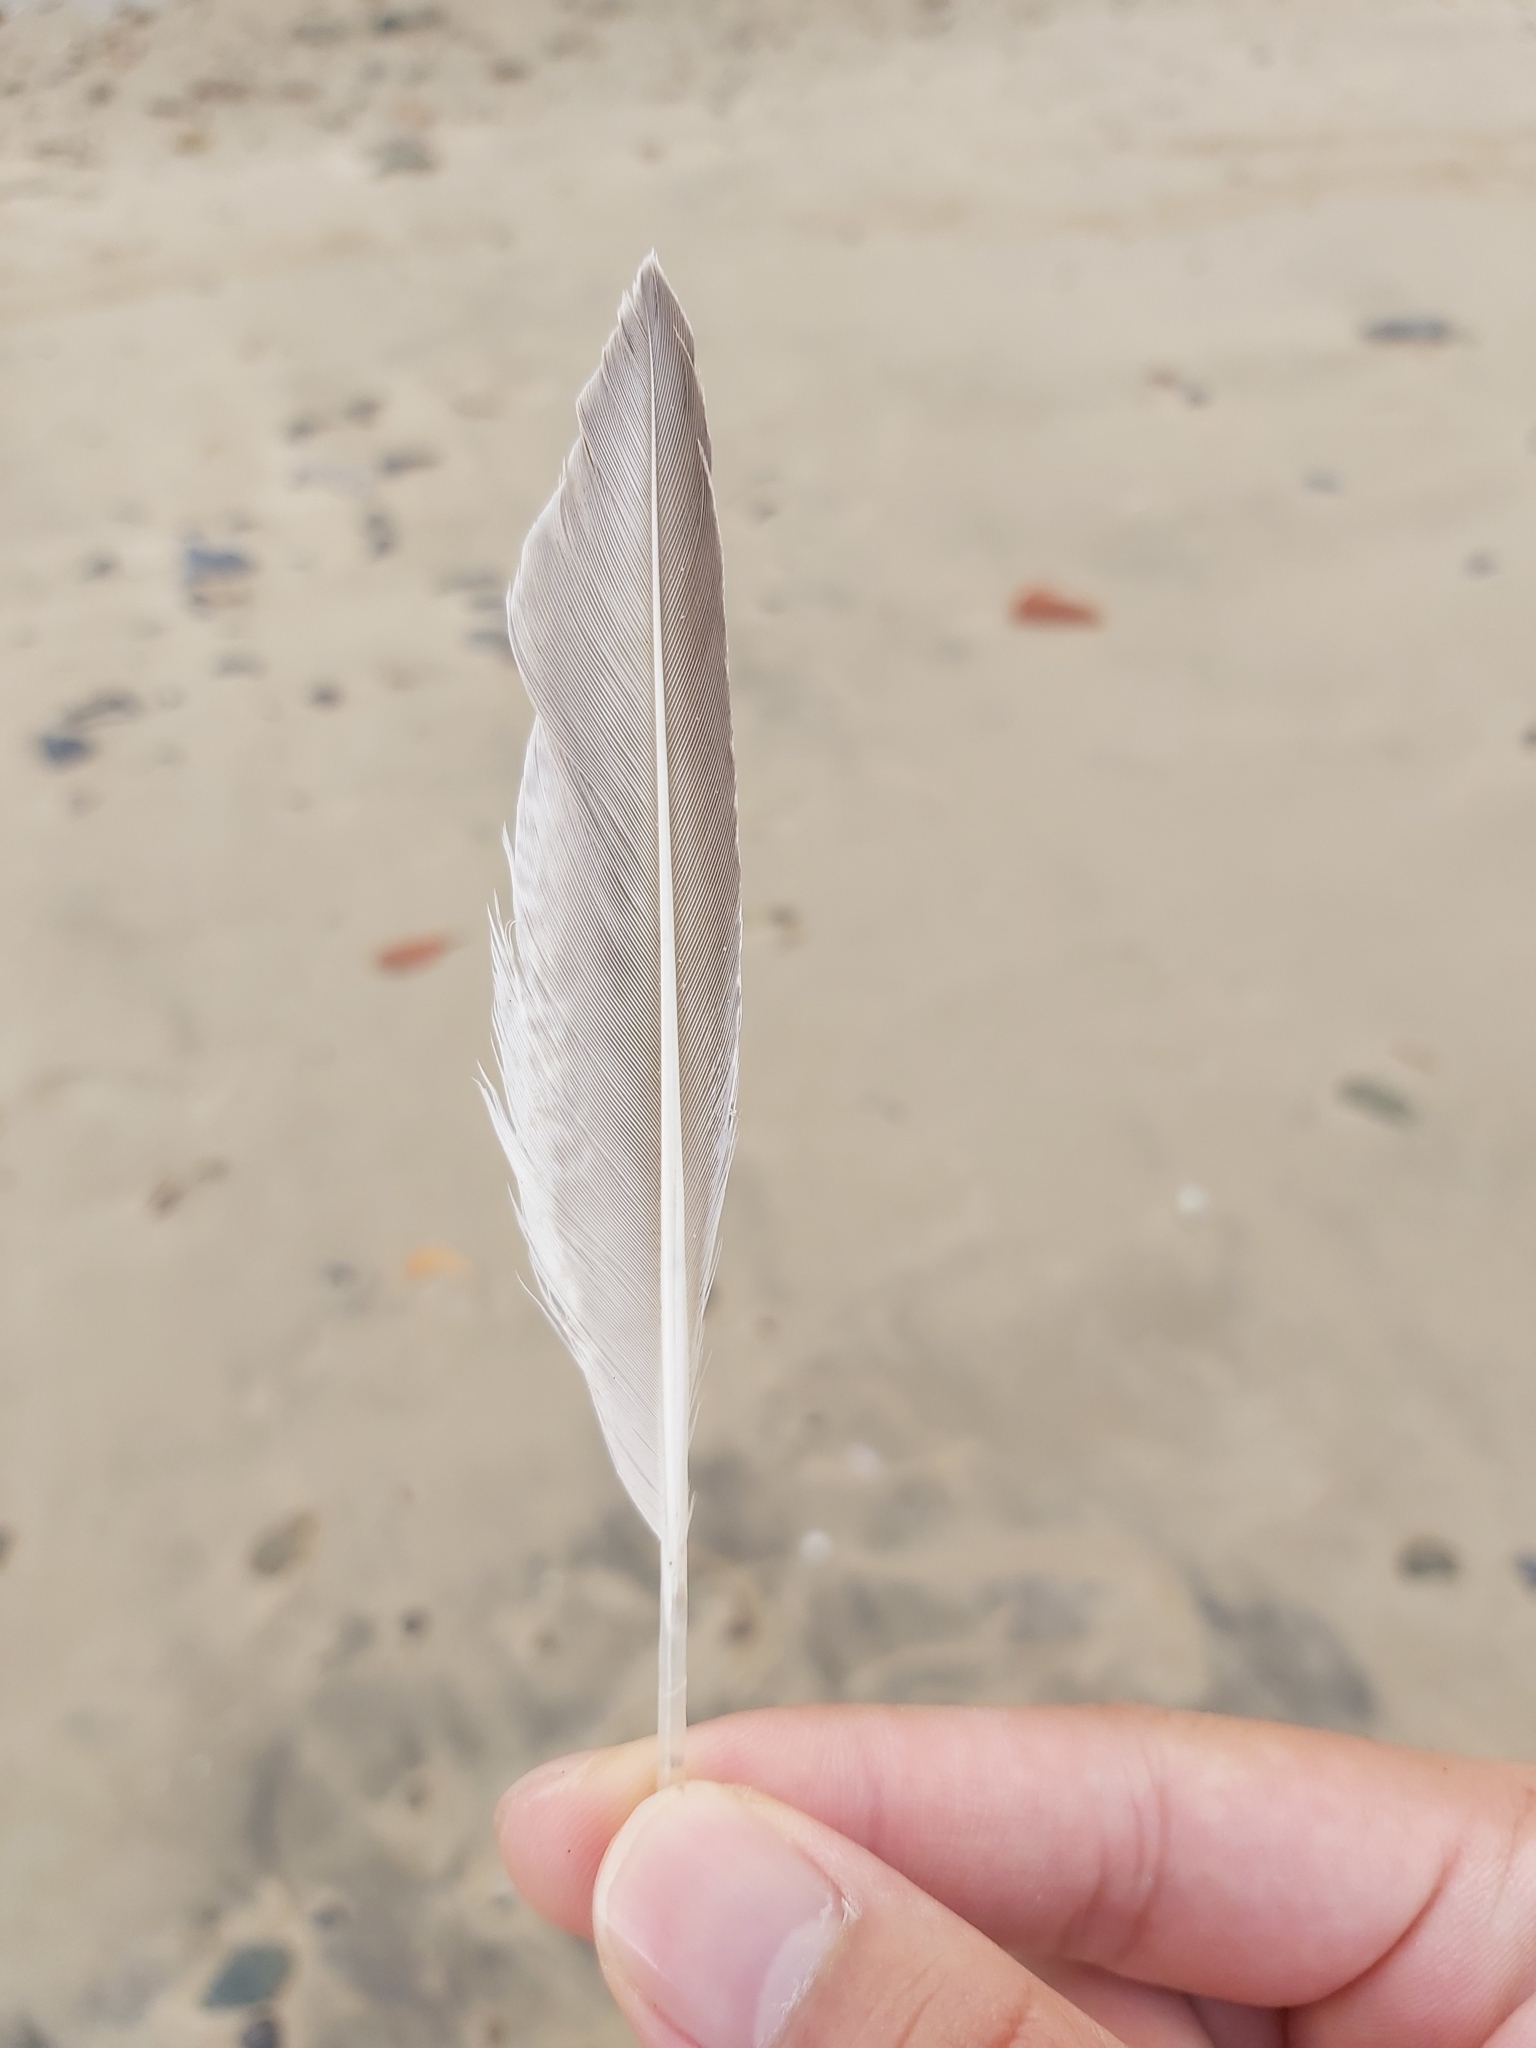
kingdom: Animalia
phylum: Chordata
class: Aves
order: Charadriiformes
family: Scolopacidae
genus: Limosa
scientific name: Limosa lapponica
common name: Bar-tailed godwit
